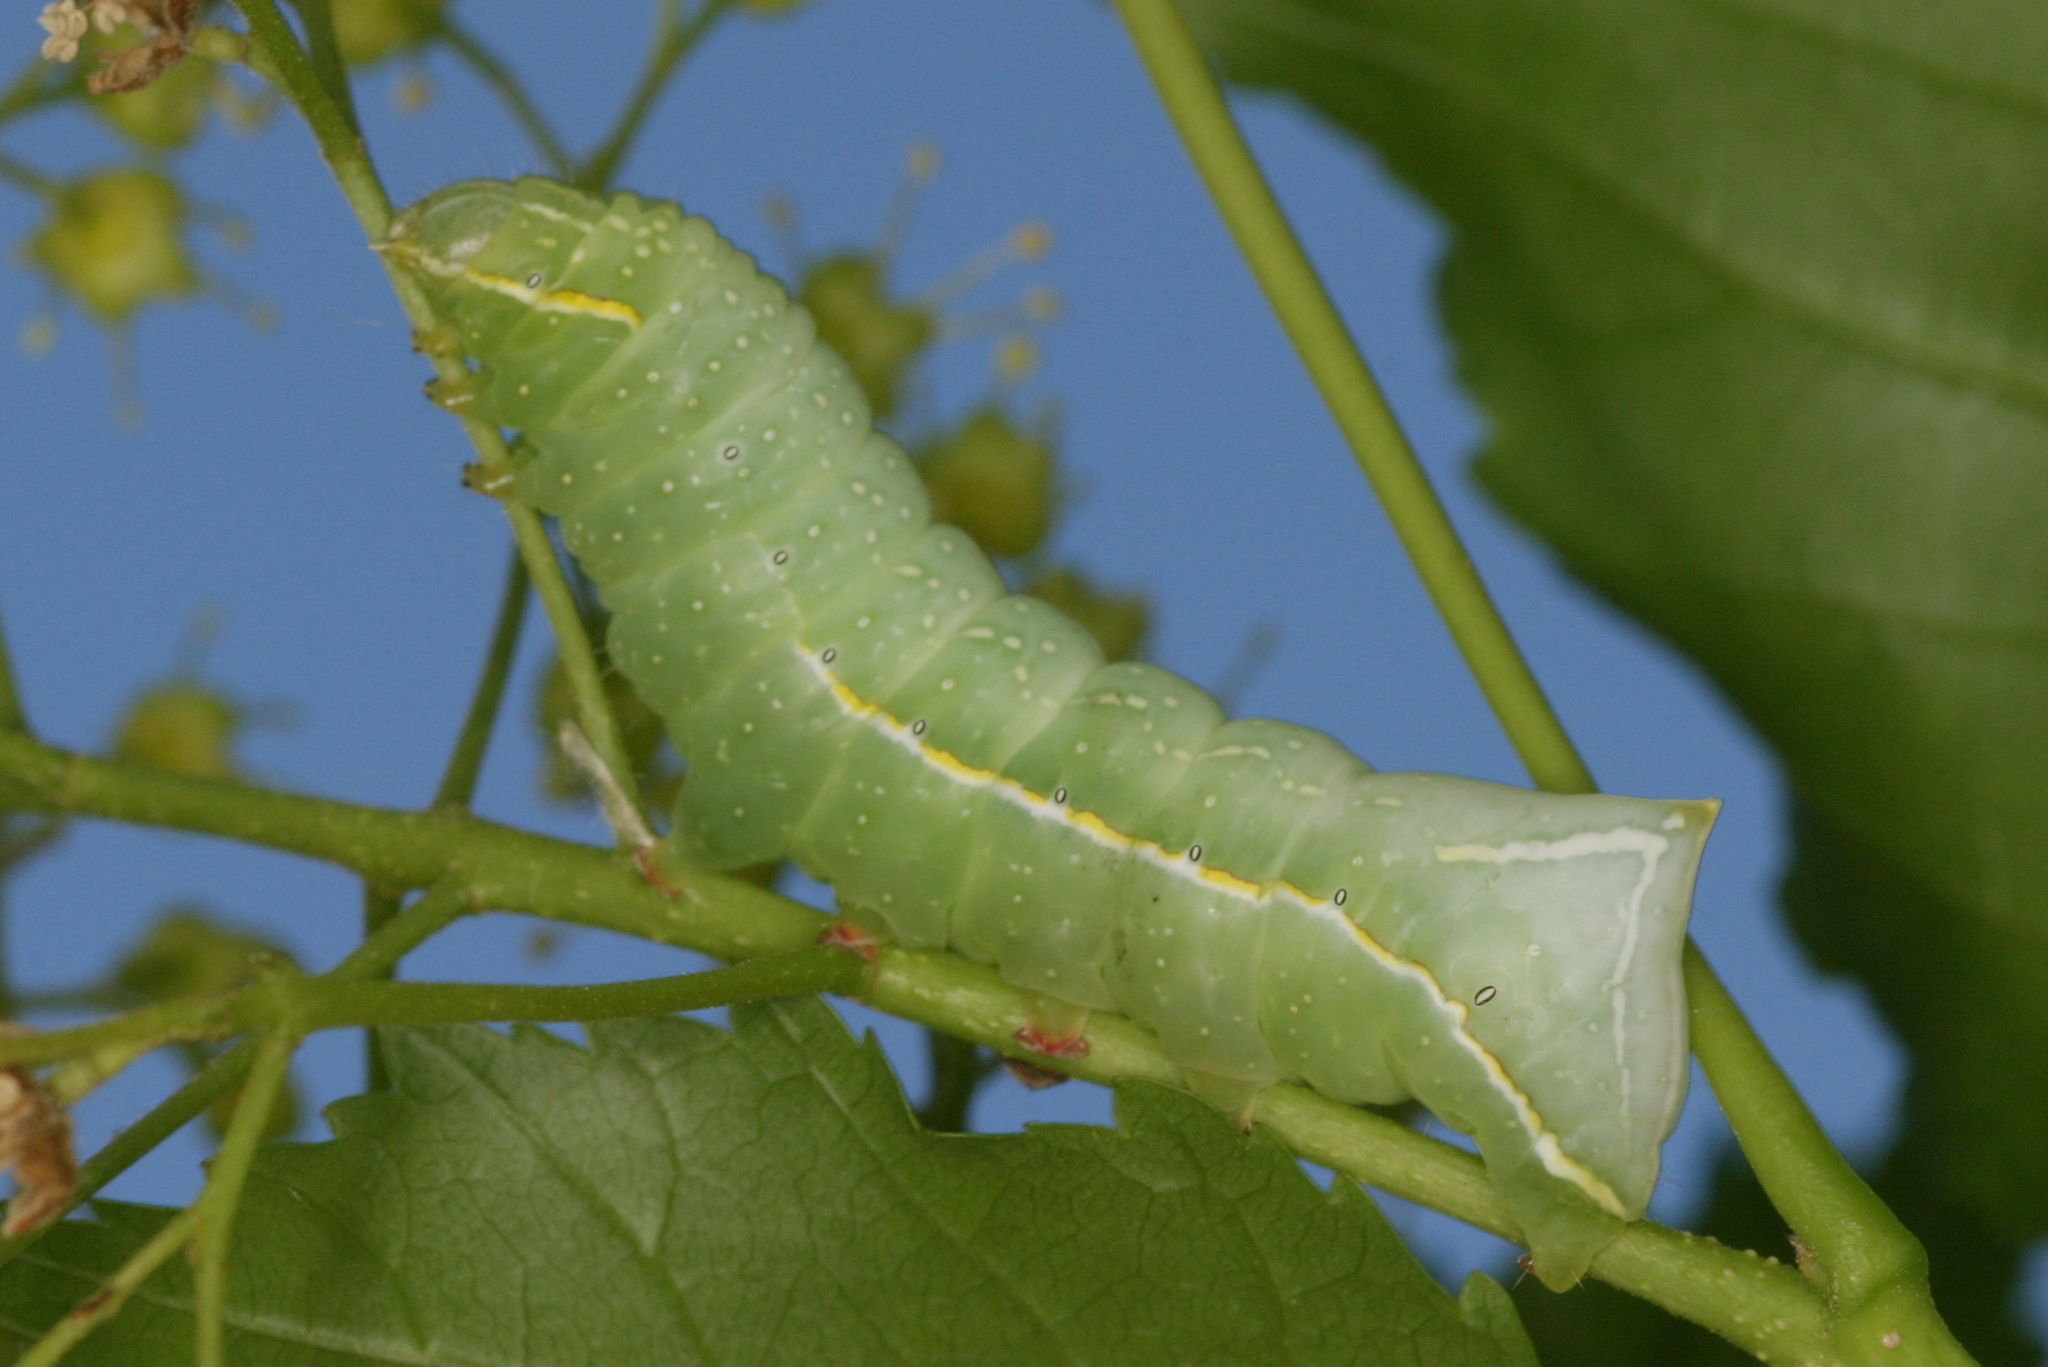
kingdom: Animalia
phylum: Arthropoda
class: Insecta
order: Lepidoptera
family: Noctuidae
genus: Amphipyra
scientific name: Amphipyra pyramidea
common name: Copper underwing
